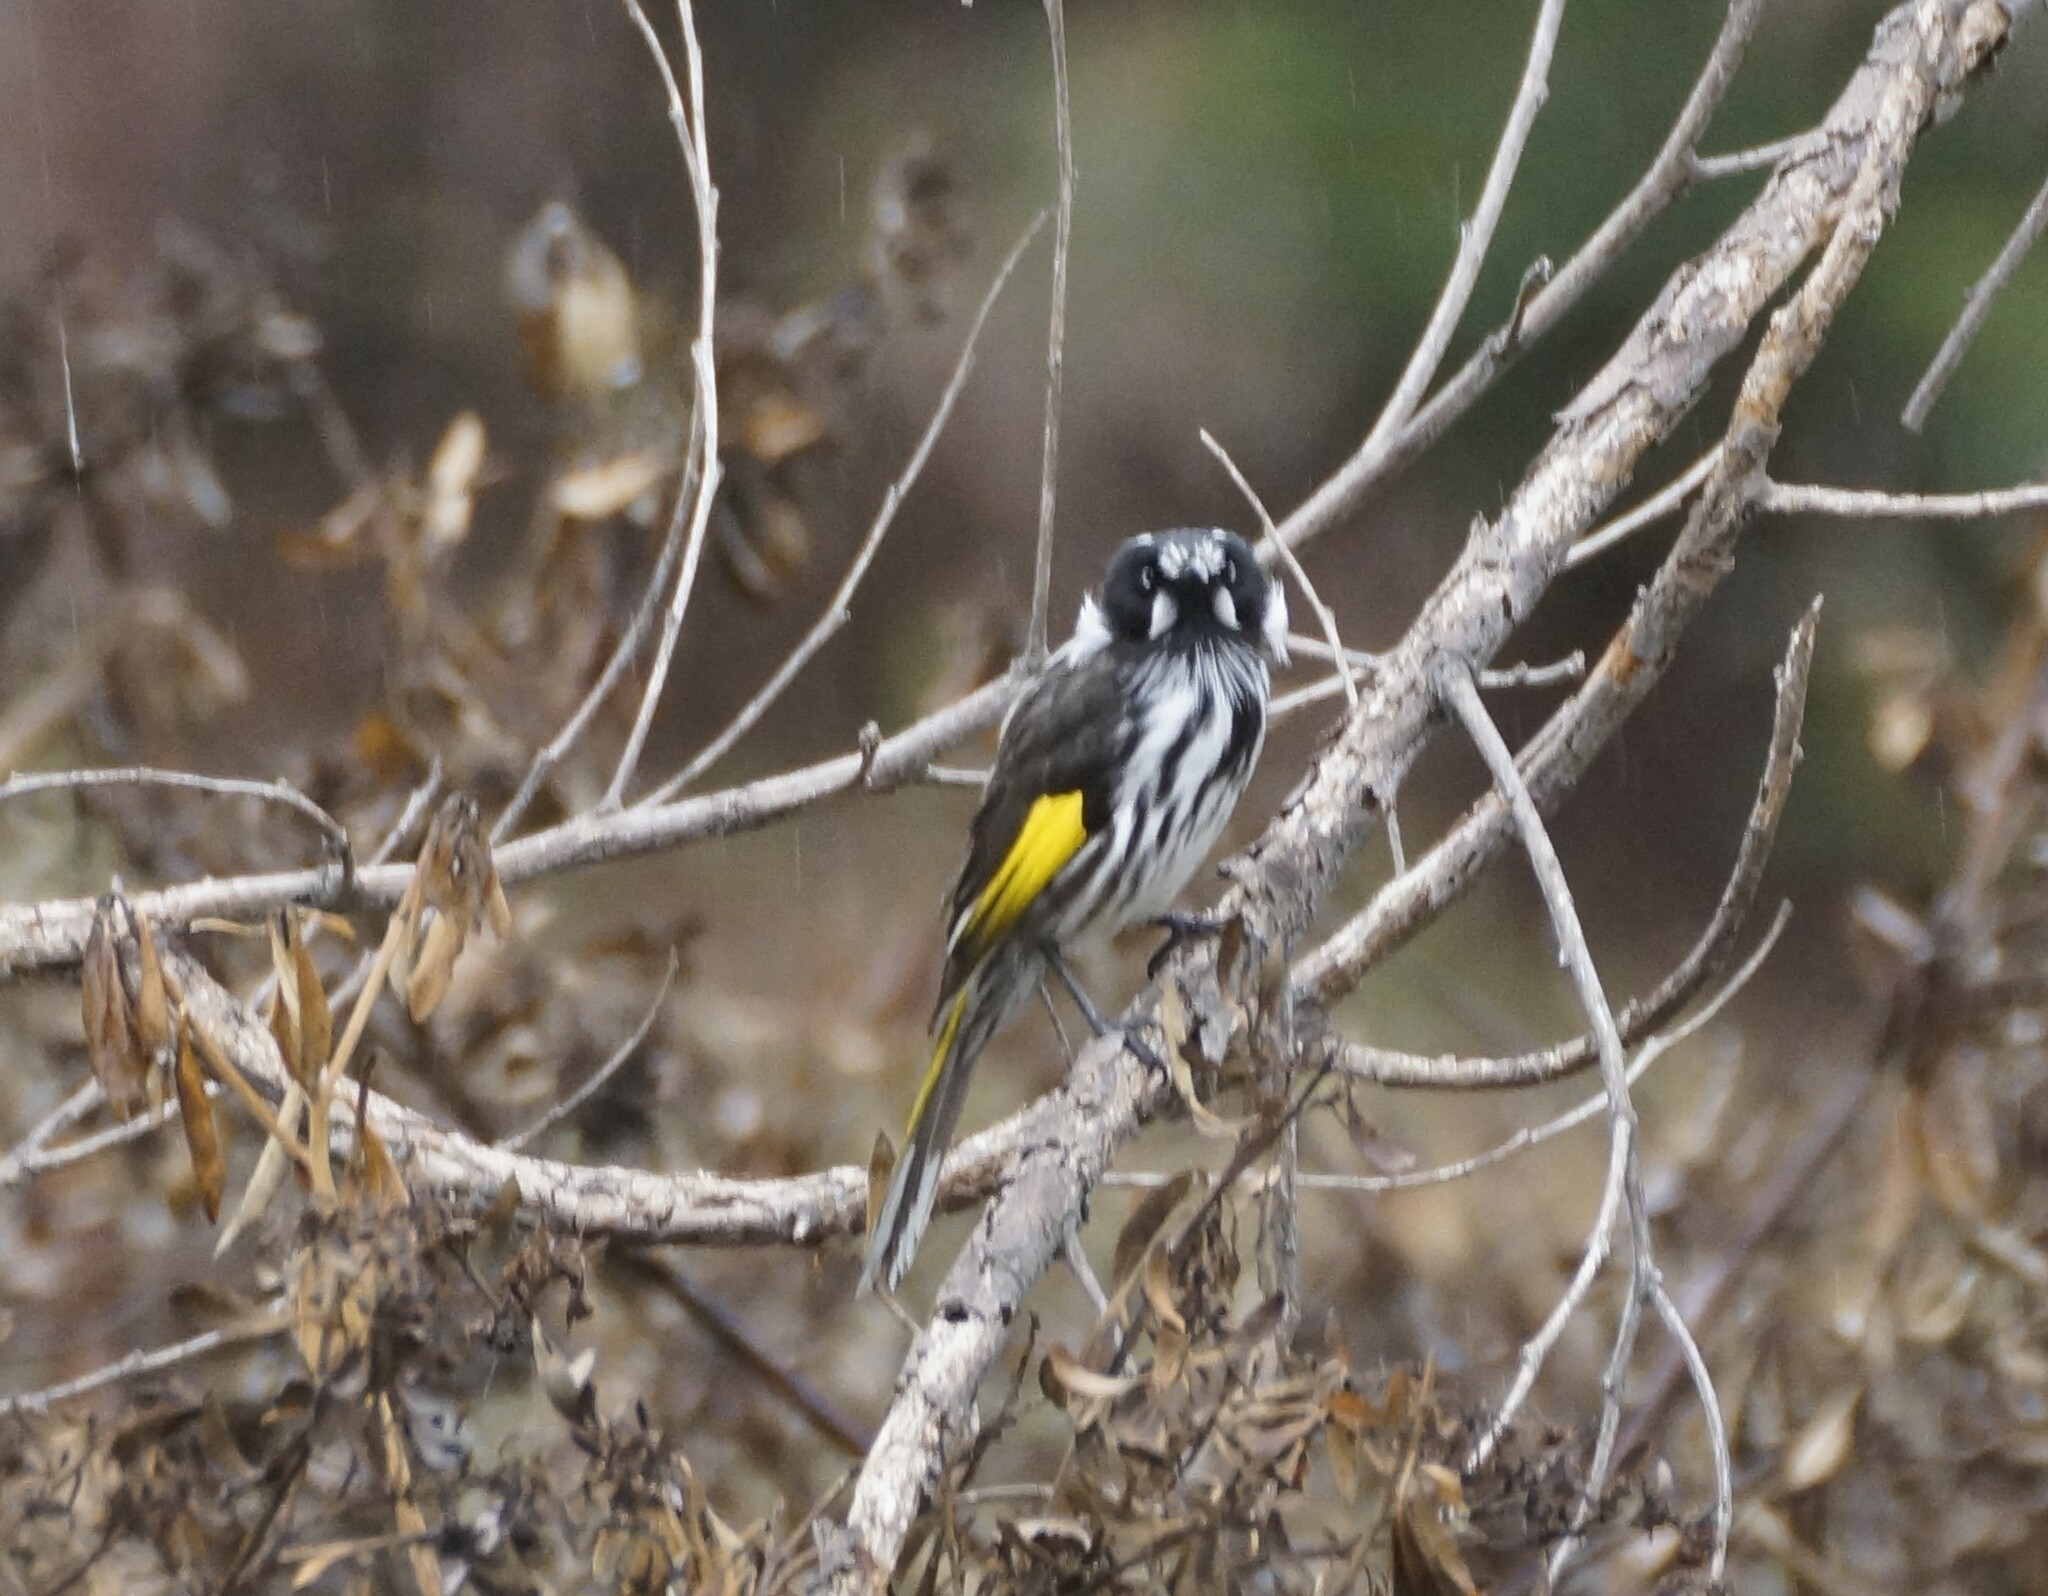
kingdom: Animalia
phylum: Chordata
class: Aves
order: Passeriformes
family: Meliphagidae
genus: Phylidonyris
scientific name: Phylidonyris novaehollandiae
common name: New holland honeyeater
